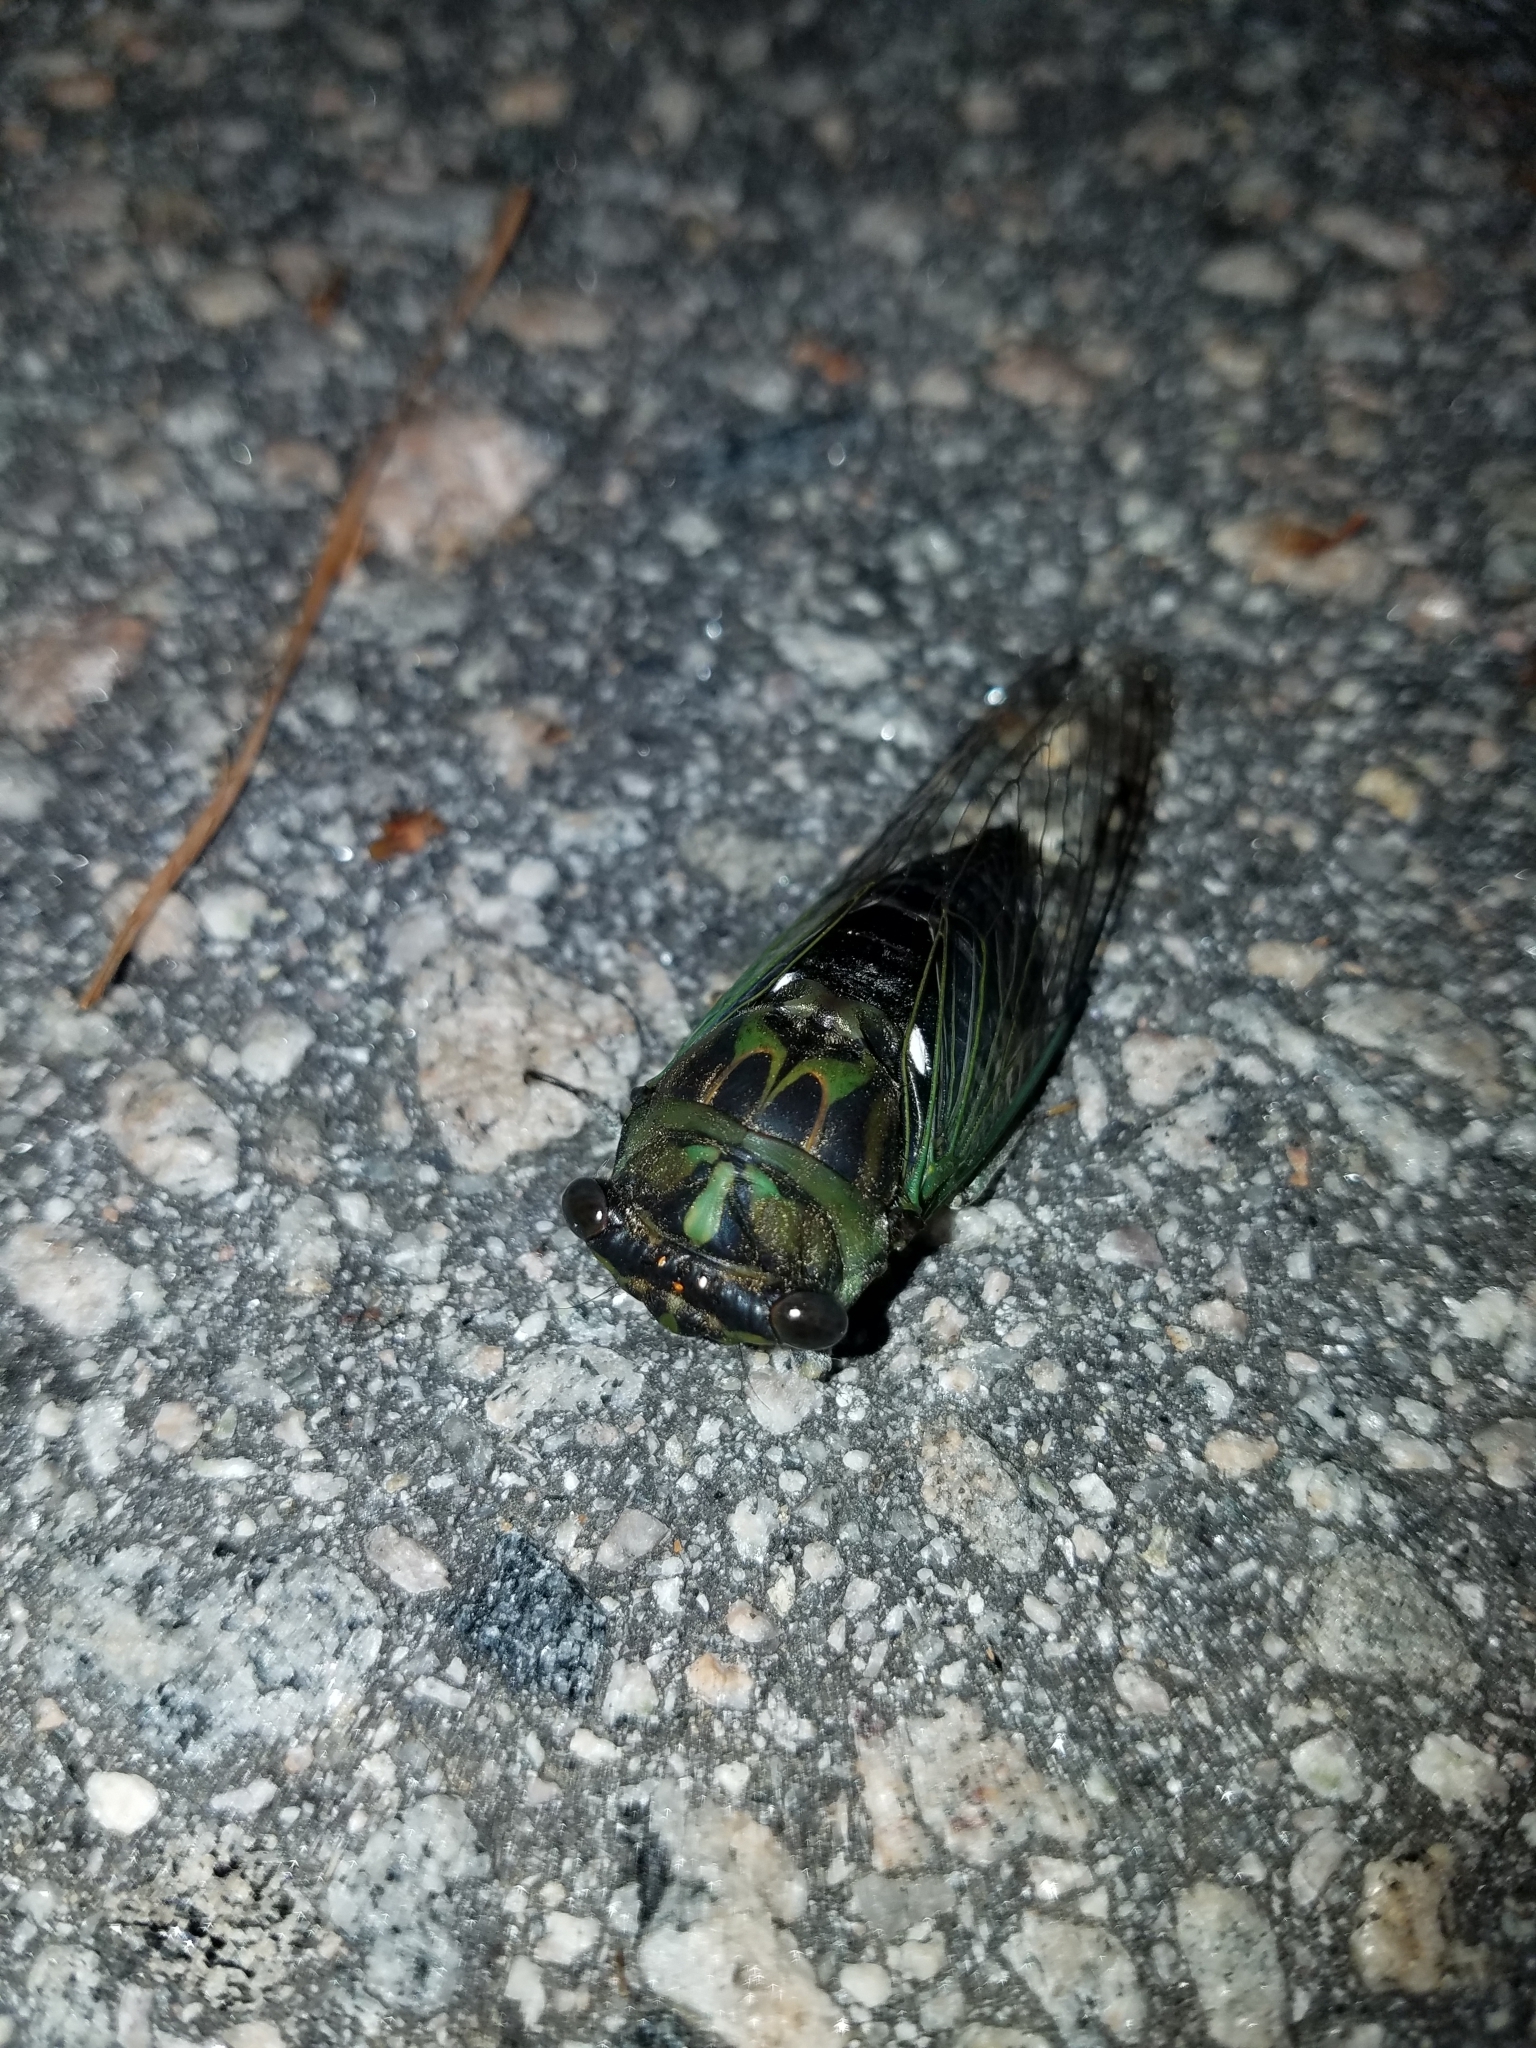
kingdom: Animalia
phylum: Arthropoda
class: Insecta
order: Hemiptera
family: Cicadidae
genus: Neotibicen
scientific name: Neotibicen linnei
